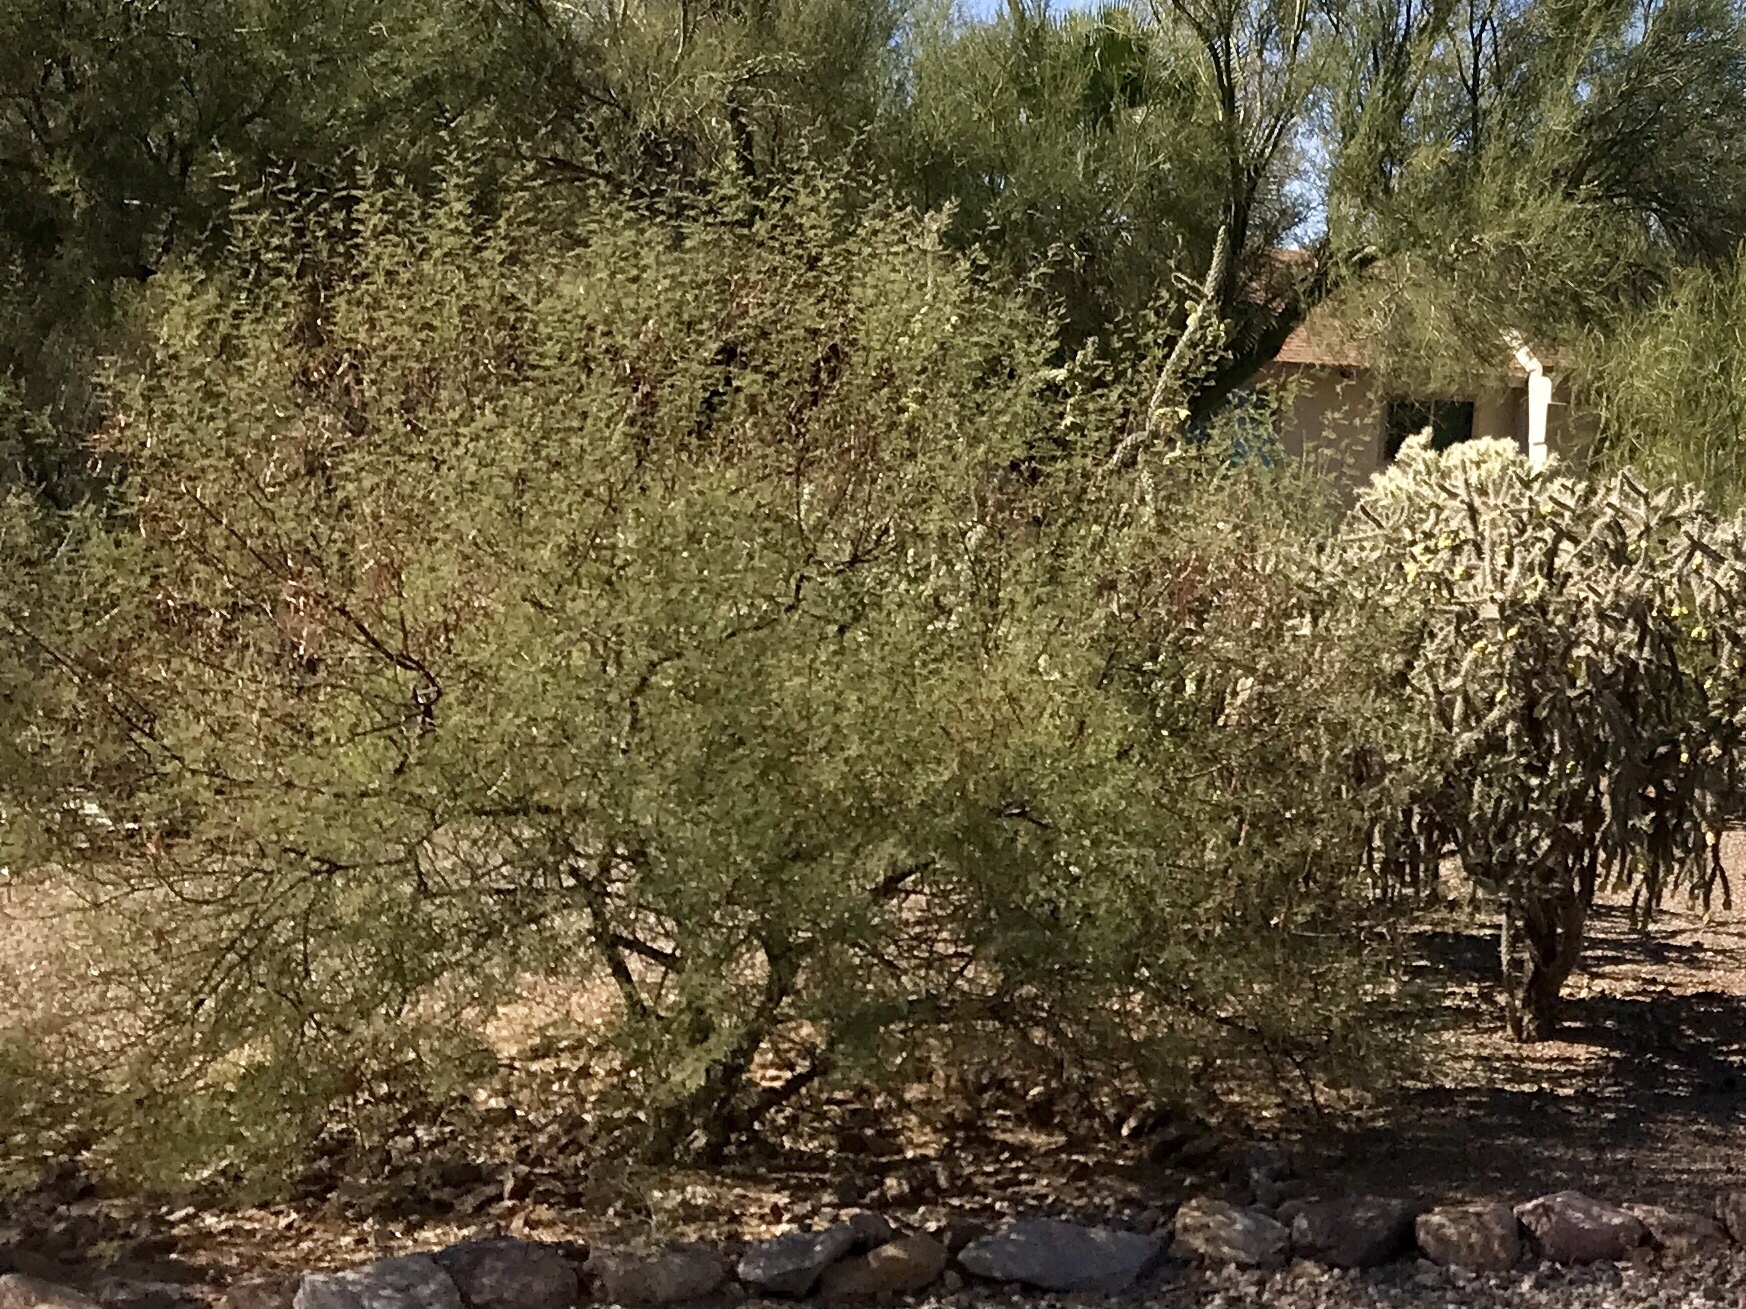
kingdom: Plantae
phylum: Tracheophyta
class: Magnoliopsida
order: Fabales
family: Fabaceae
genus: Vachellia
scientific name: Vachellia constricta
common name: Mescat acacia
